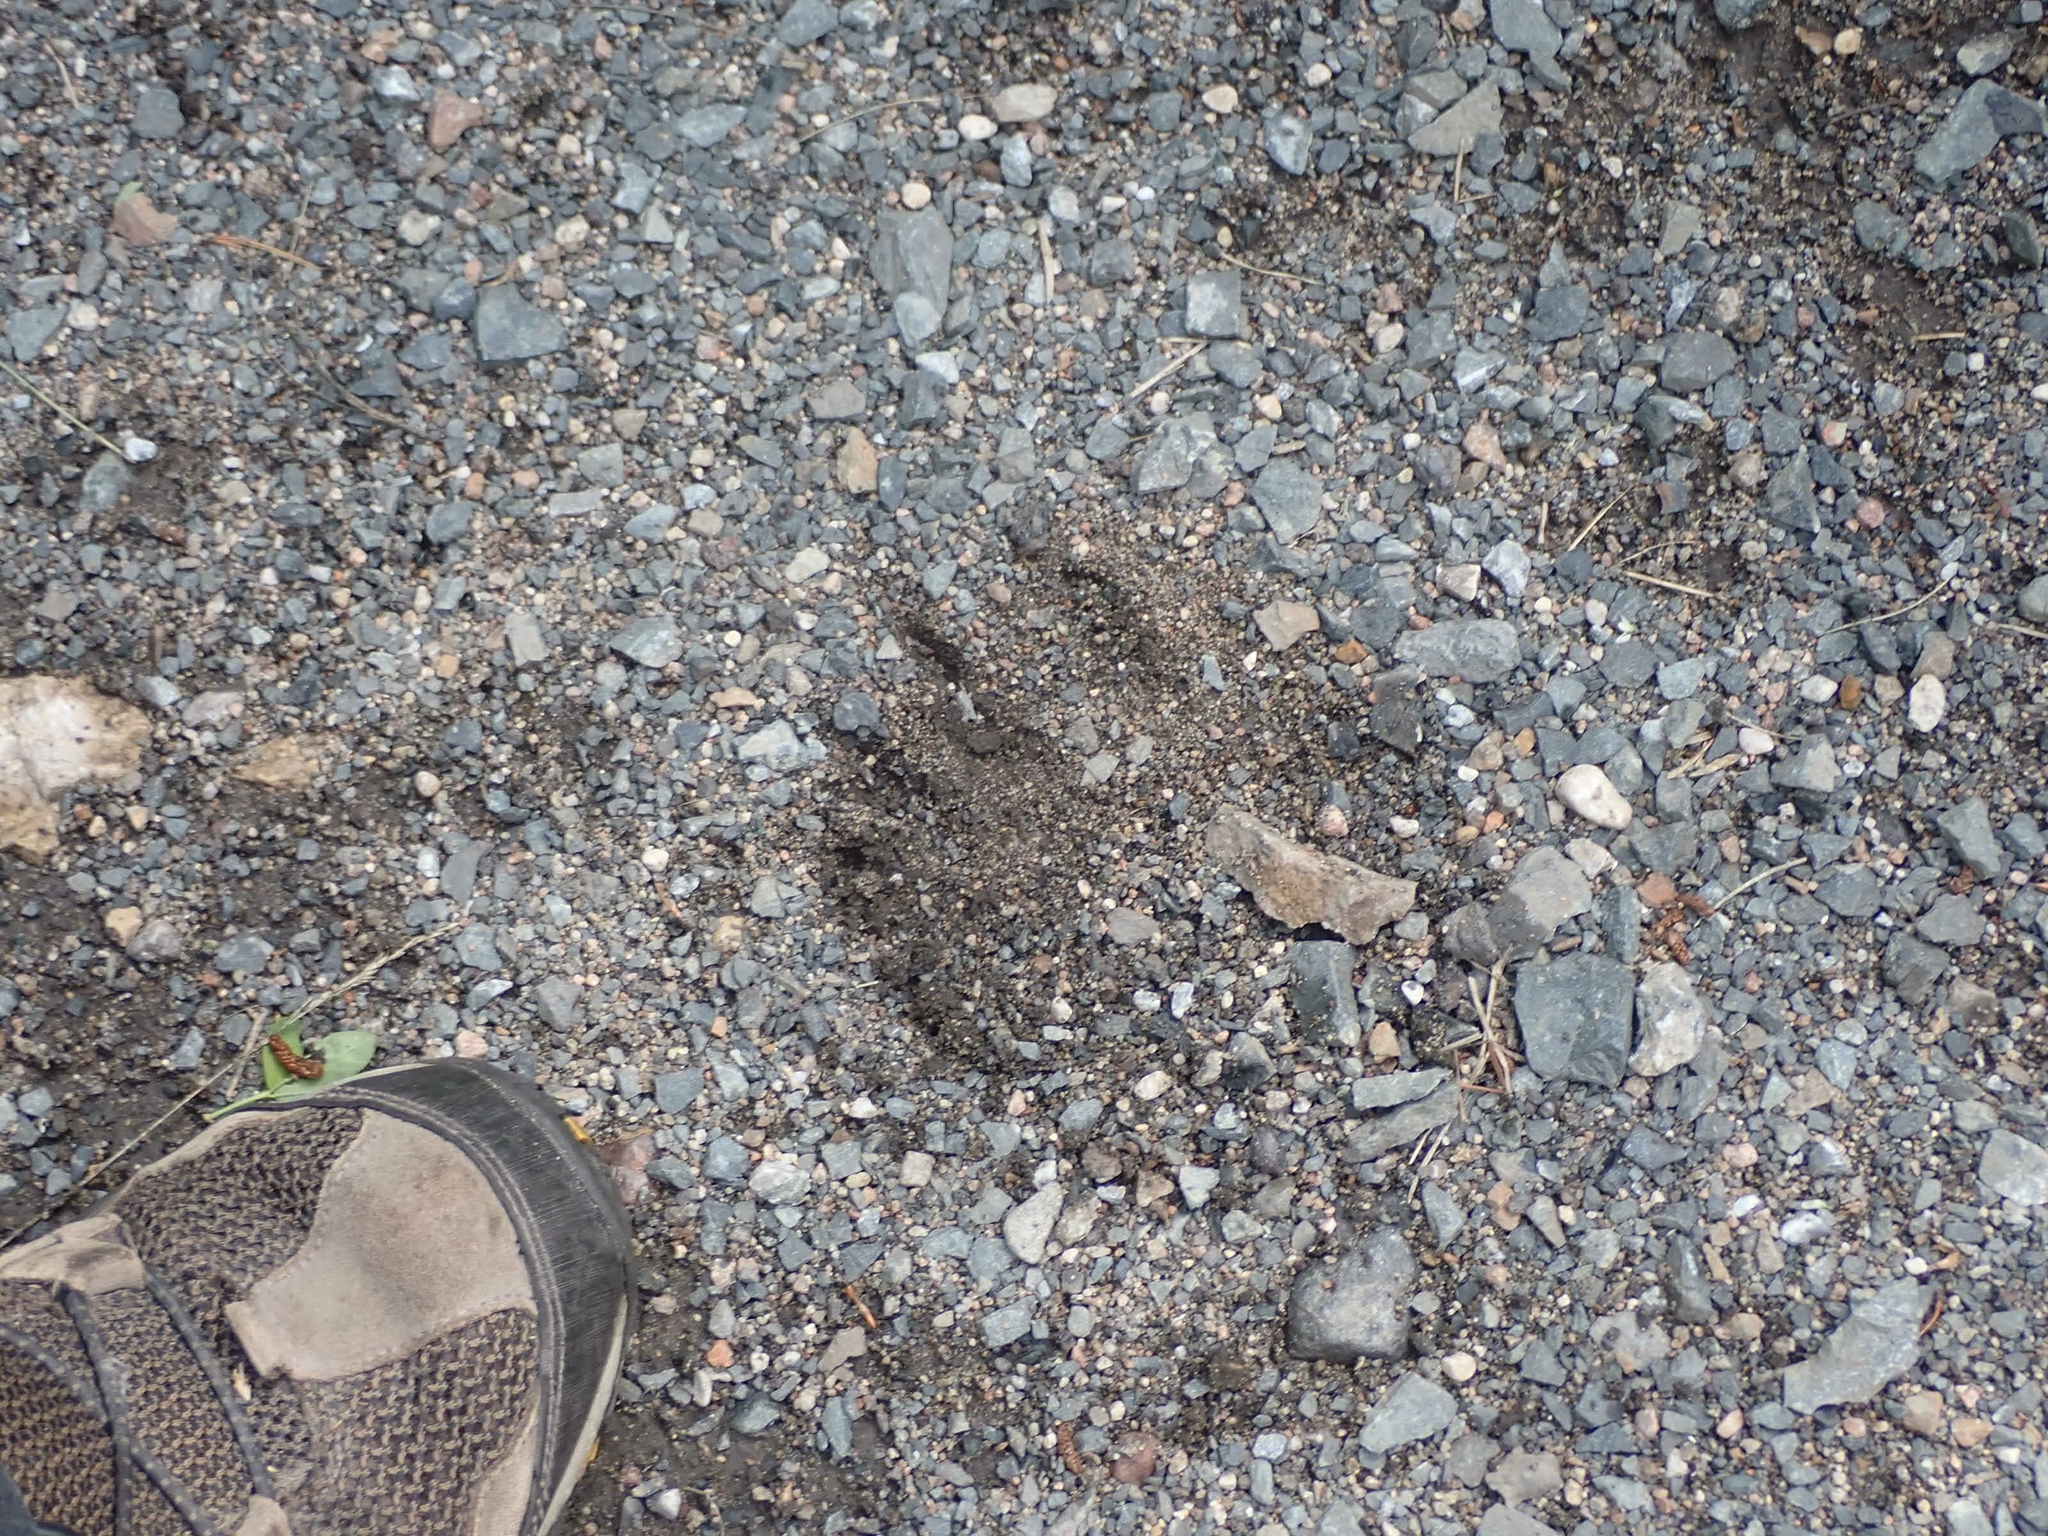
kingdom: Animalia
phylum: Chordata
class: Mammalia
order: Carnivora
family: Ursidae
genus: Ursus
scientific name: Ursus americanus
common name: American black bear
